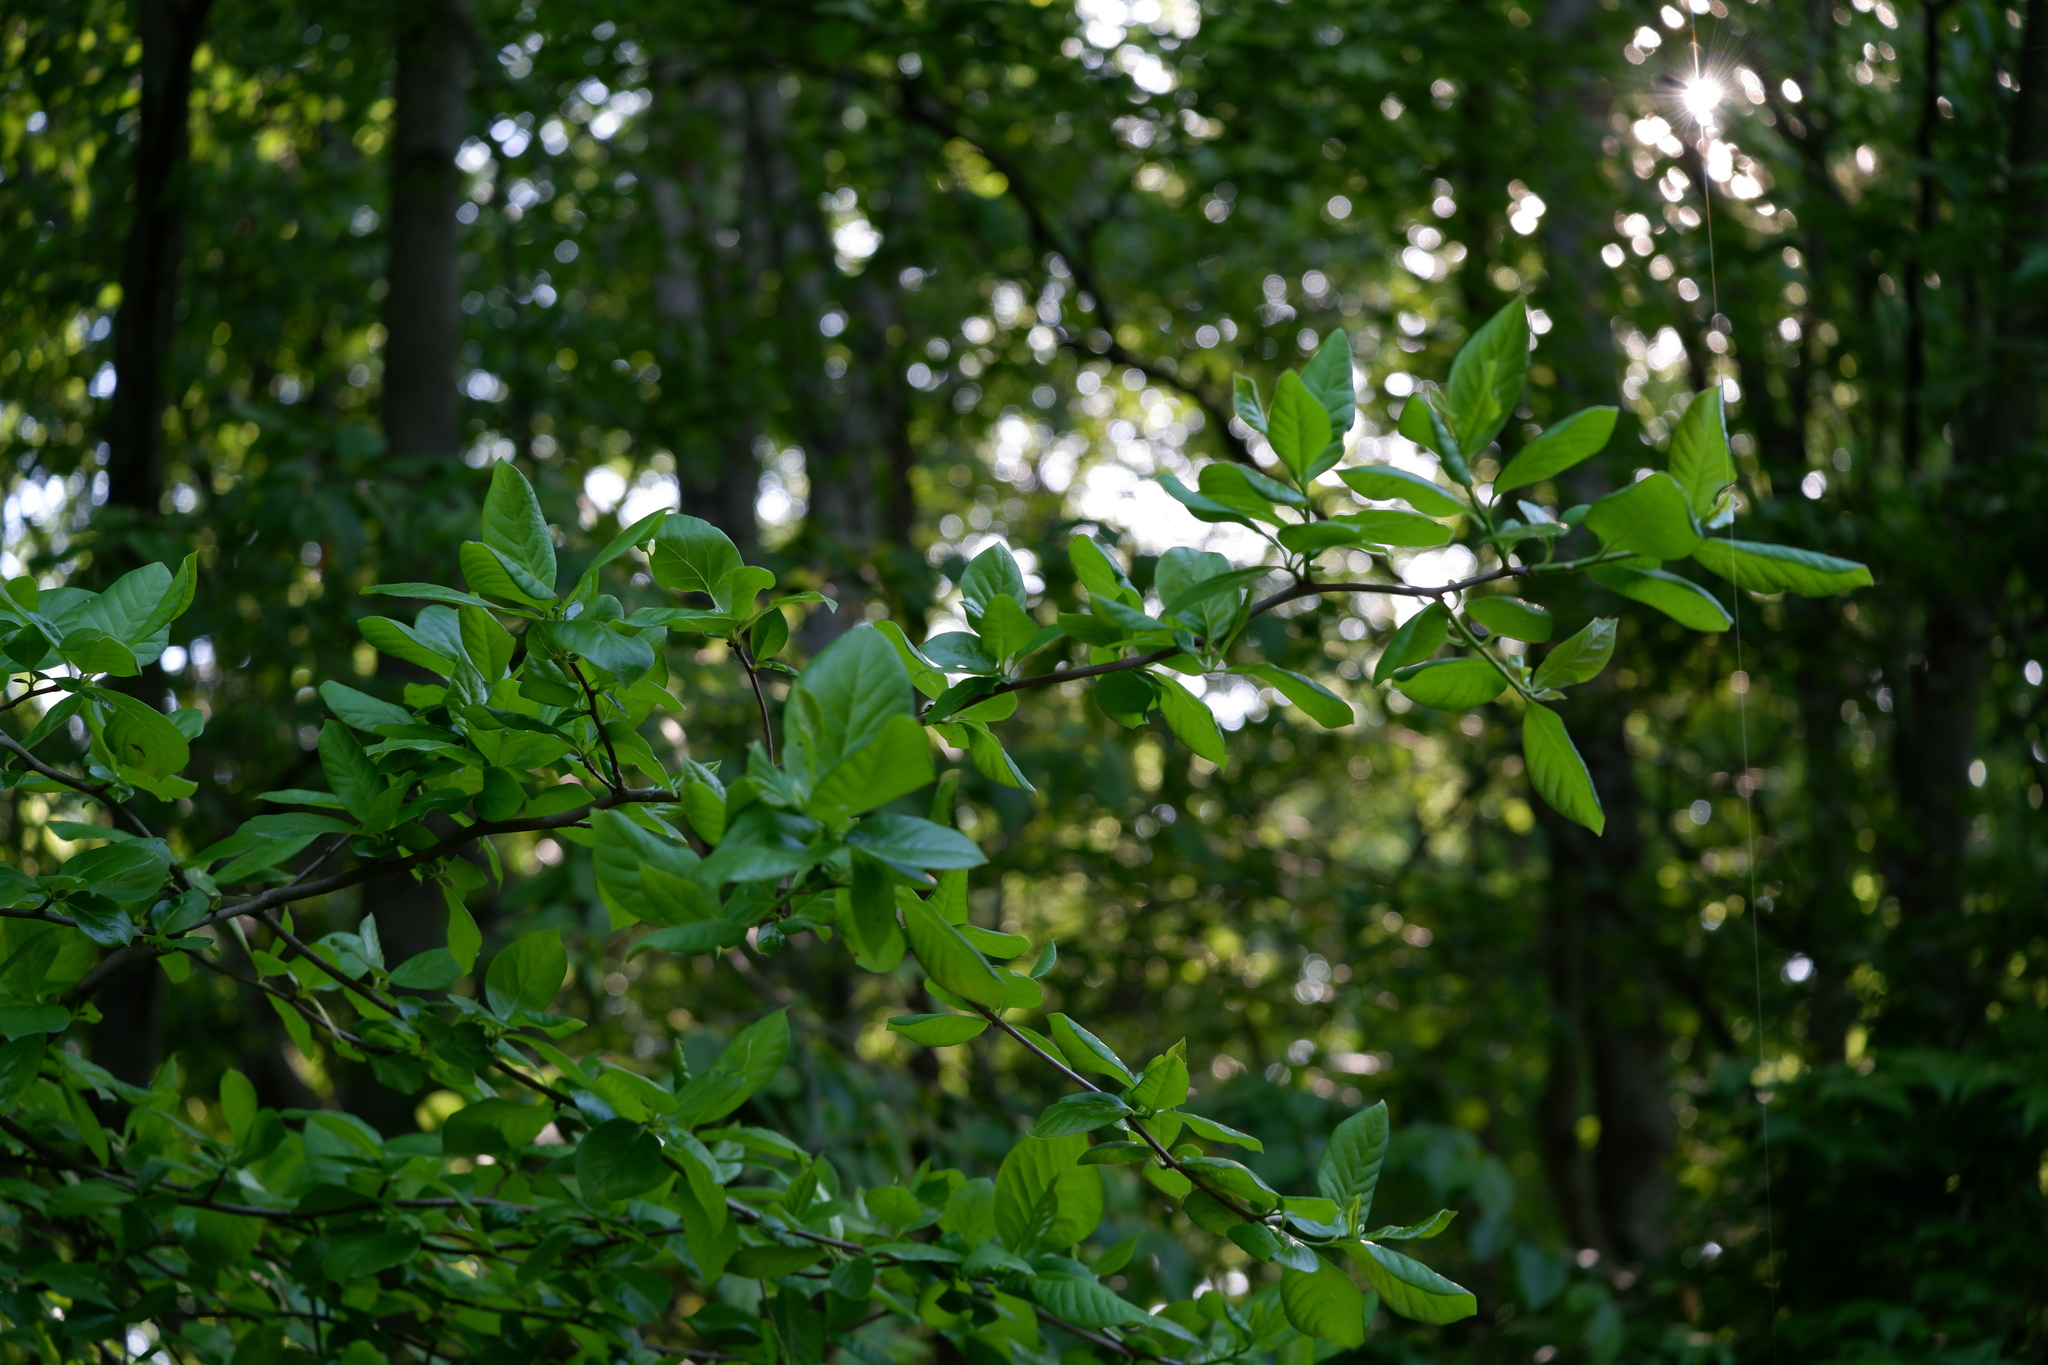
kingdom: Plantae
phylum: Tracheophyta
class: Magnoliopsida
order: Cornales
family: Nyssaceae
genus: Nyssa
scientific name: Nyssa sylvatica
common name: Black tupelo
